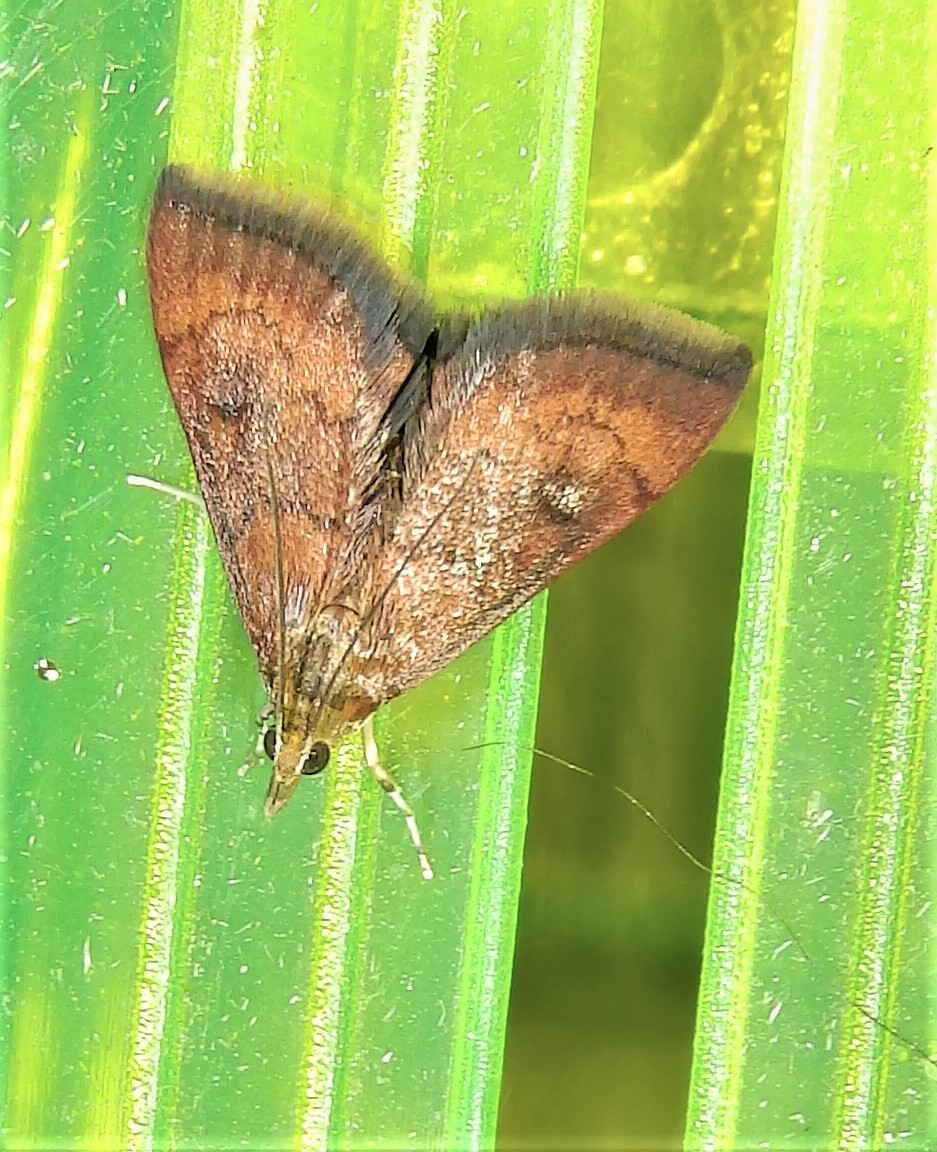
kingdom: Animalia
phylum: Arthropoda
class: Insecta
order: Lepidoptera
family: Crambidae
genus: Pyrausta
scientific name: Pyrausta rubricalis
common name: Variable reddish pyrausta
